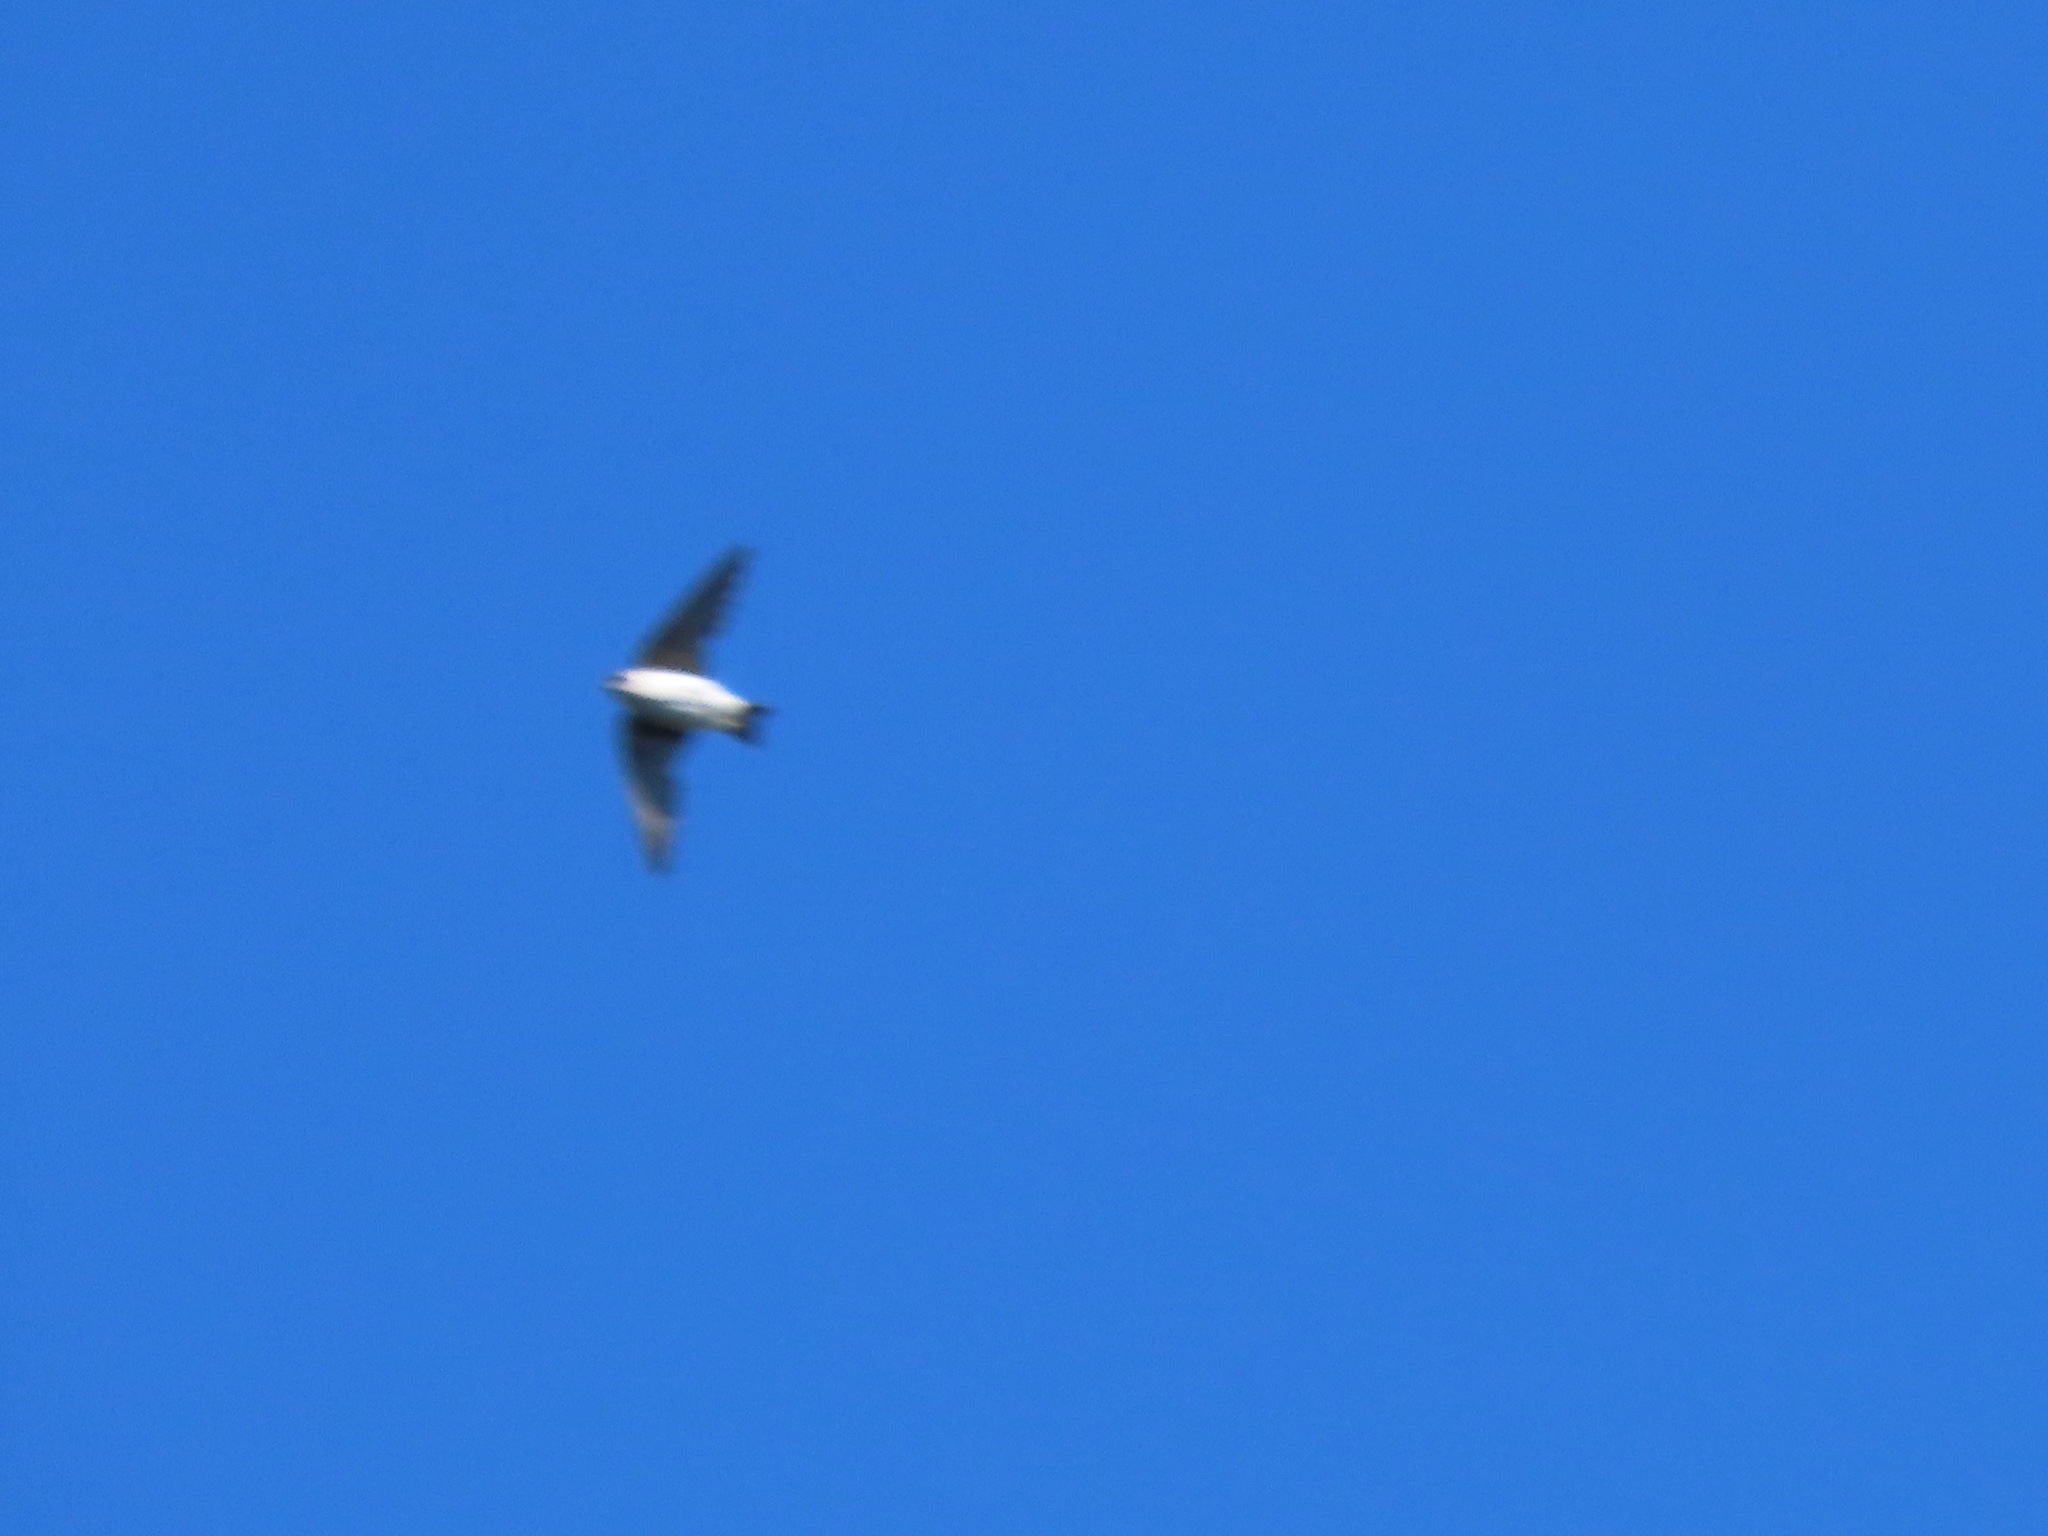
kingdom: Animalia
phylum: Chordata
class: Aves
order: Passeriformes
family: Hirundinidae
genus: Tachycineta
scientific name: Tachycineta thalassina
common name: Violet-green swallow
